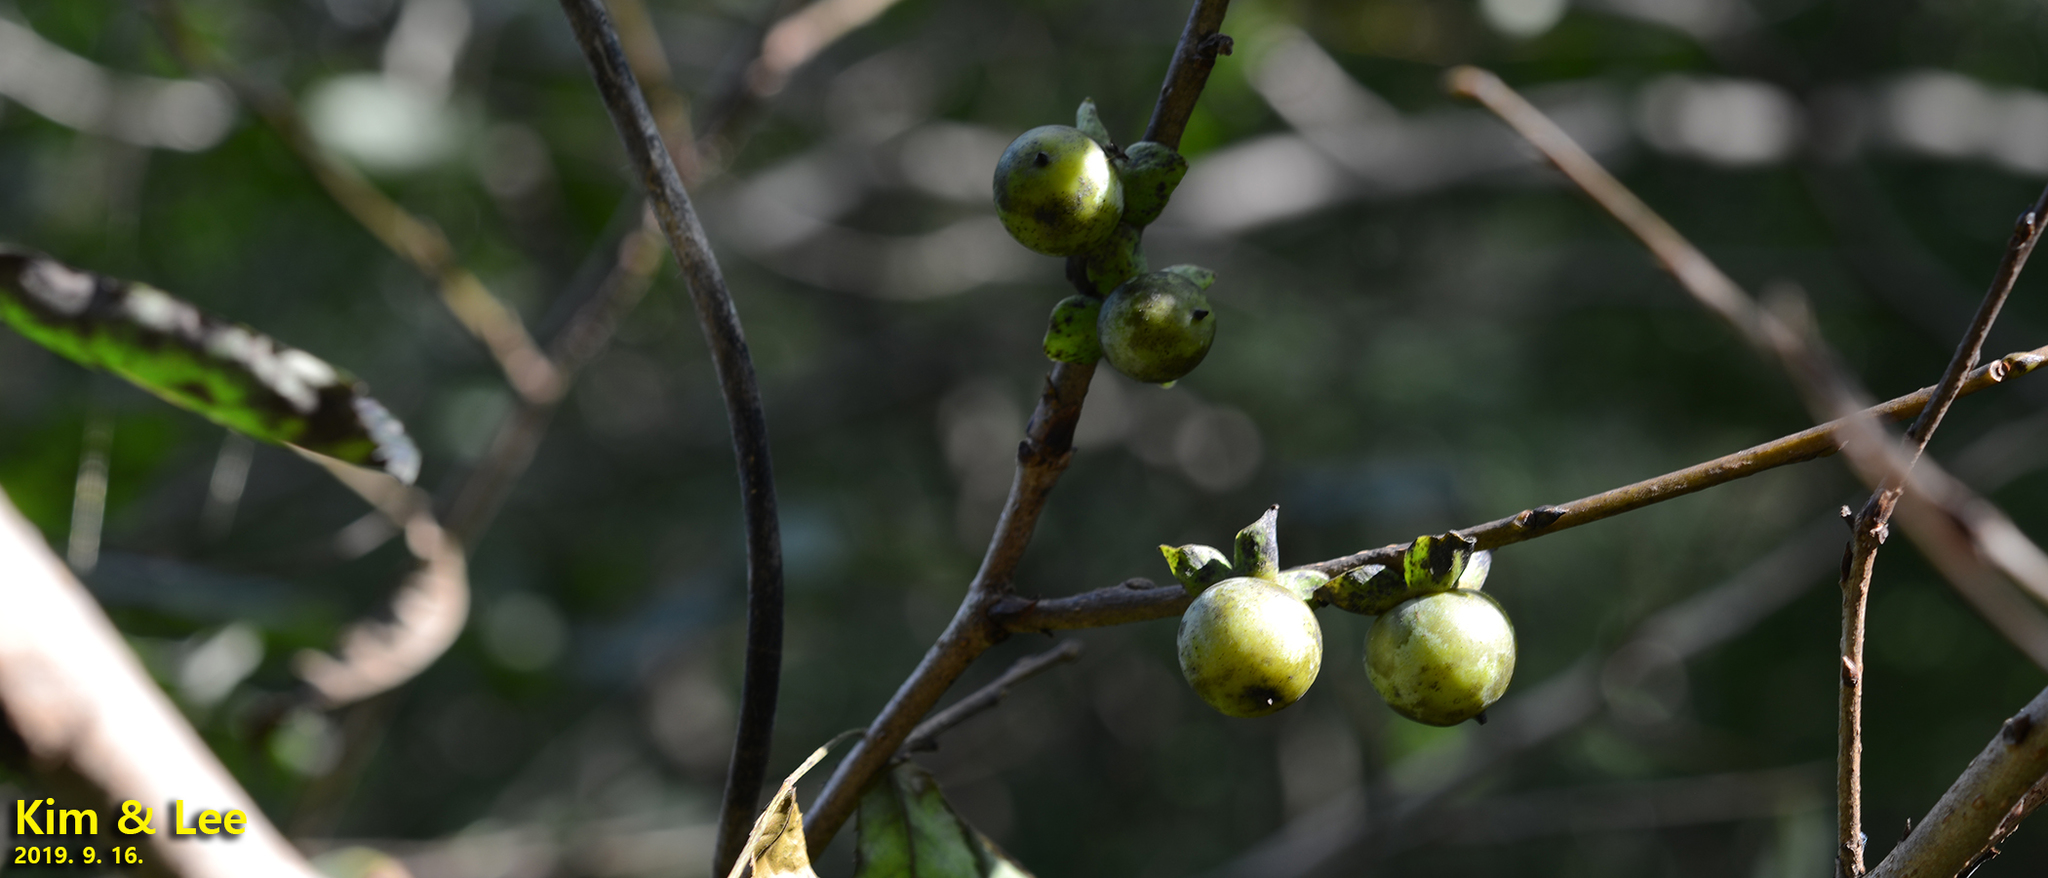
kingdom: Plantae
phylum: Tracheophyta
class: Magnoliopsida
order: Ericales
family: Ebenaceae
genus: Diospyros
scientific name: Diospyros lotus
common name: Date-plum
